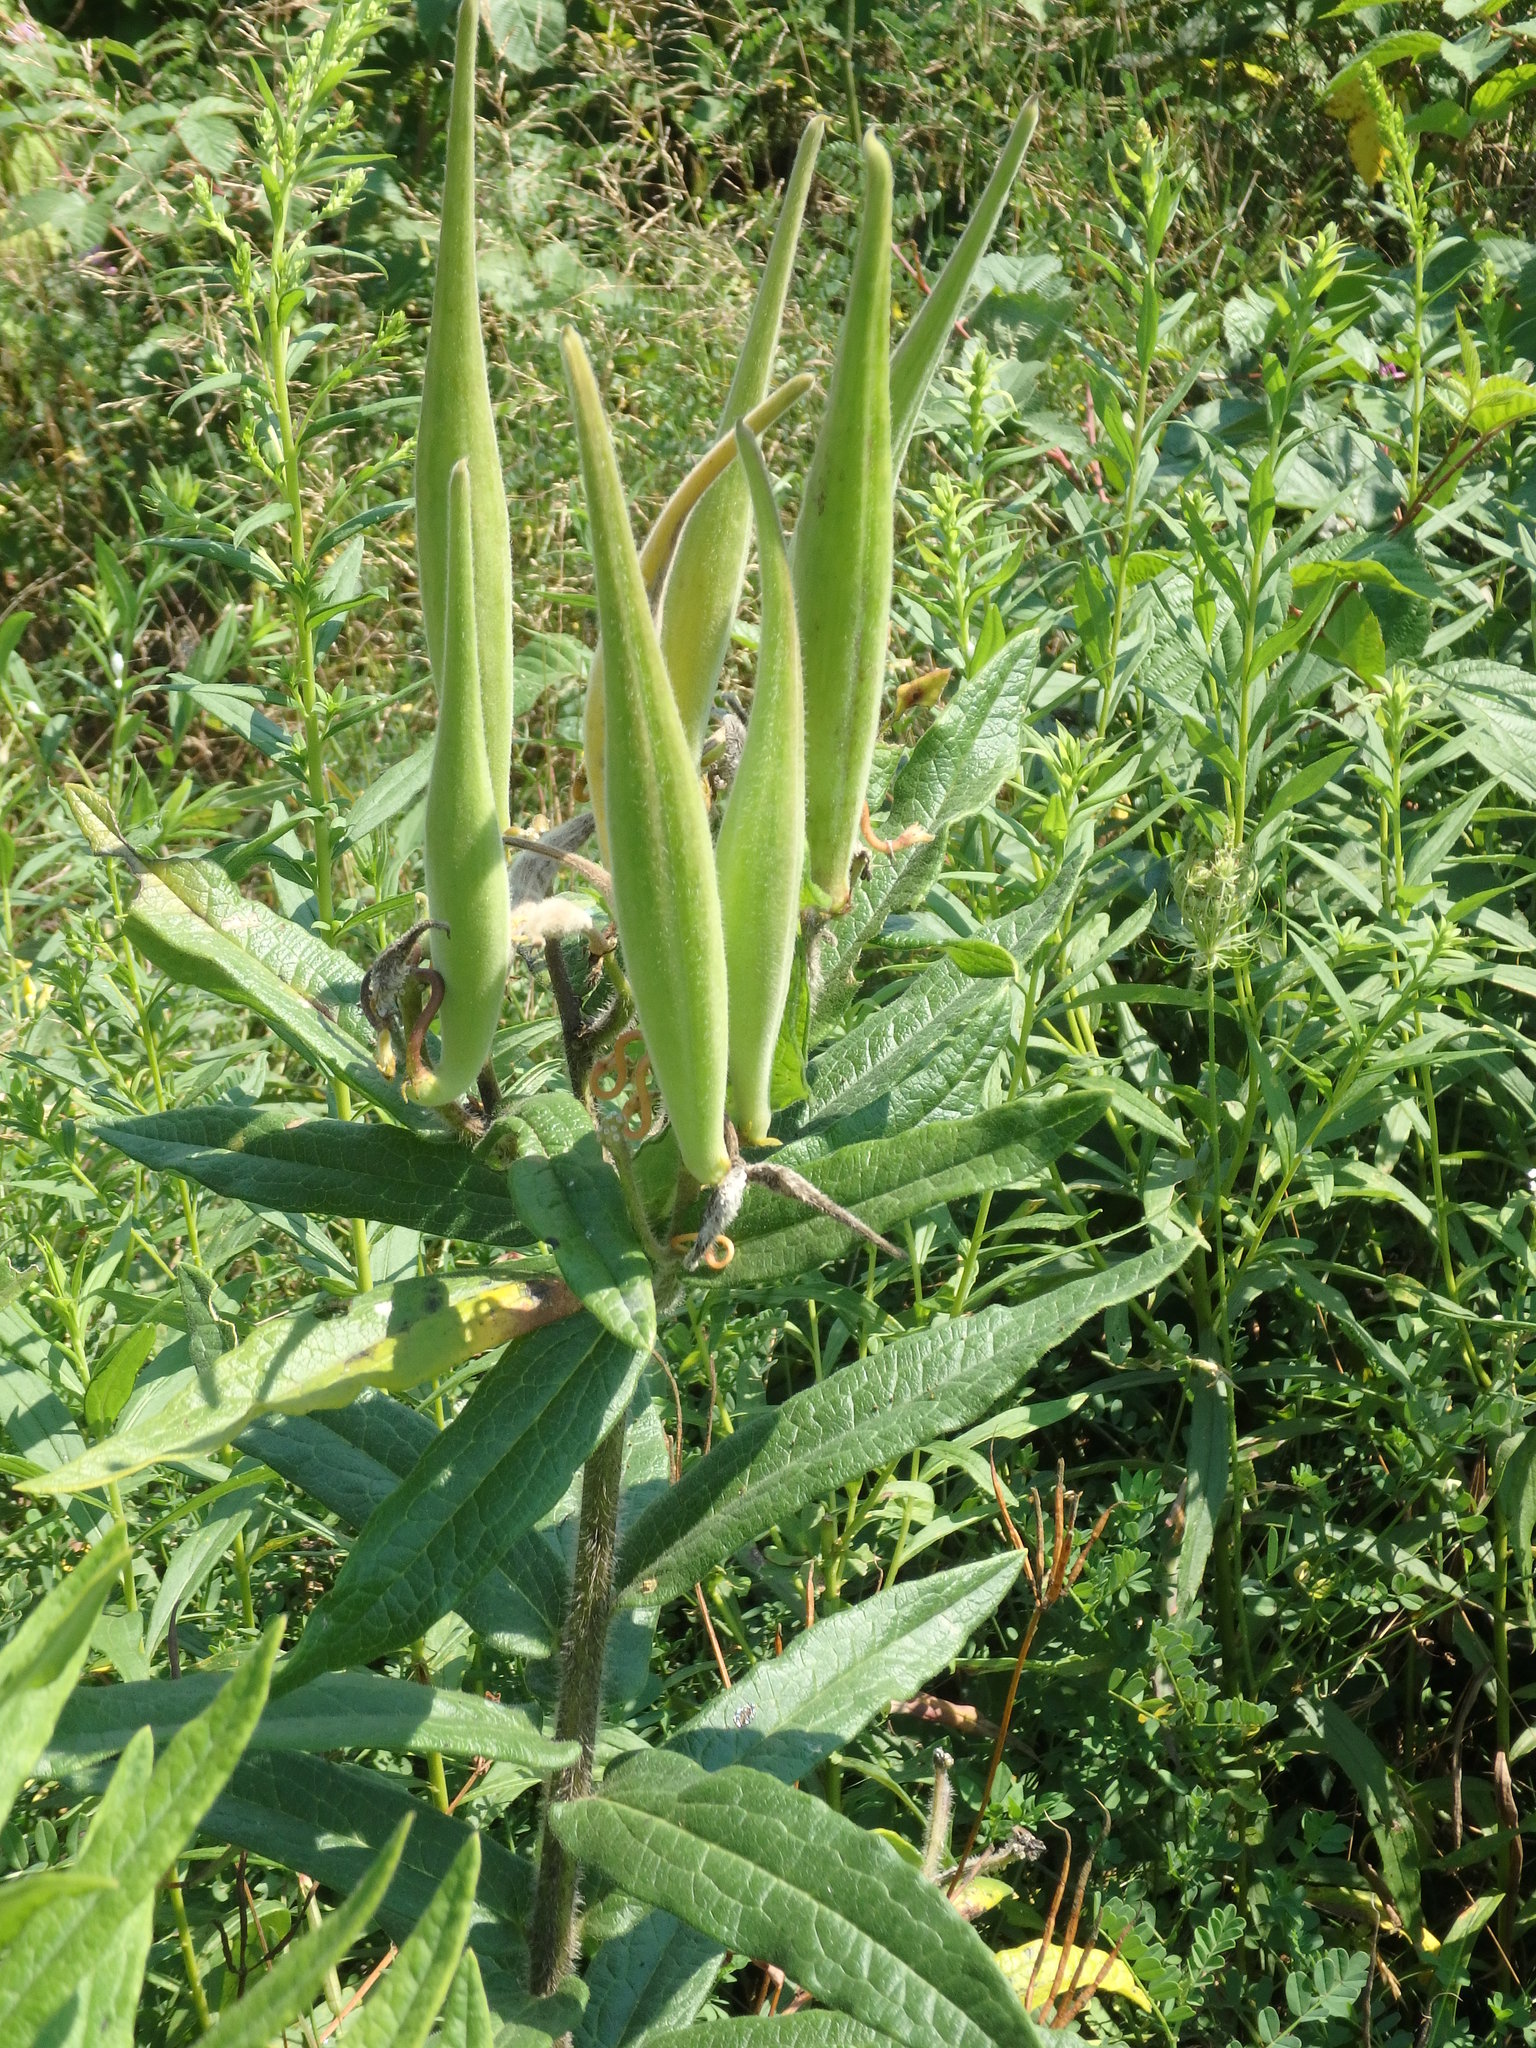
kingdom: Plantae
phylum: Tracheophyta
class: Magnoliopsida
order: Gentianales
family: Apocynaceae
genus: Asclepias
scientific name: Asclepias tuberosa
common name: Butterfly milkweed
